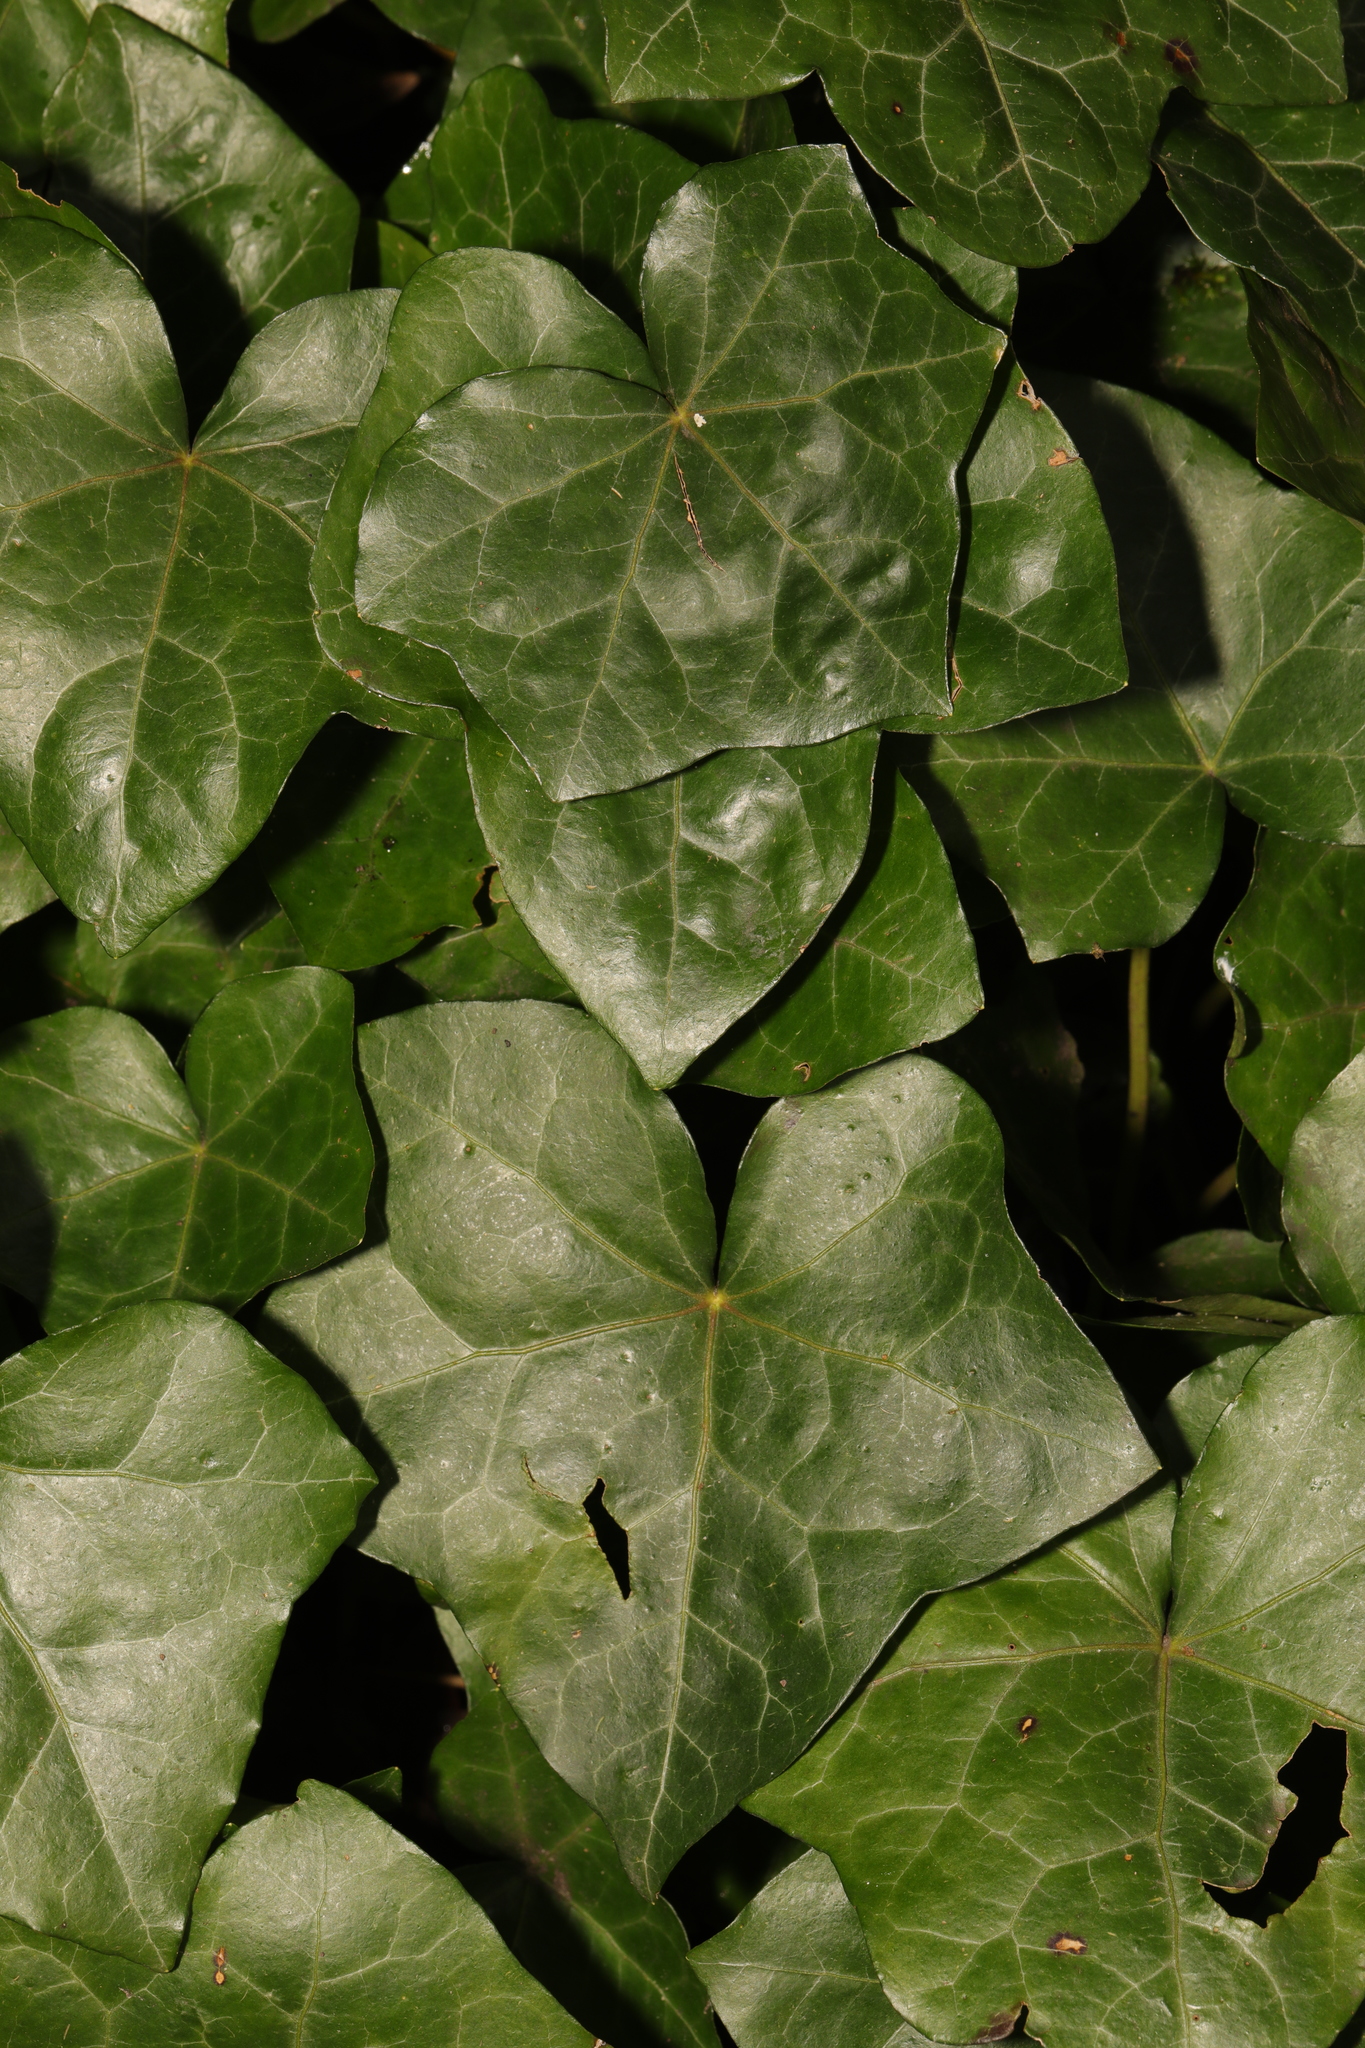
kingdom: Plantae
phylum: Tracheophyta
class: Magnoliopsida
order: Apiales
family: Araliaceae
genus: Hedera
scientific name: Hedera helix
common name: Ivy
